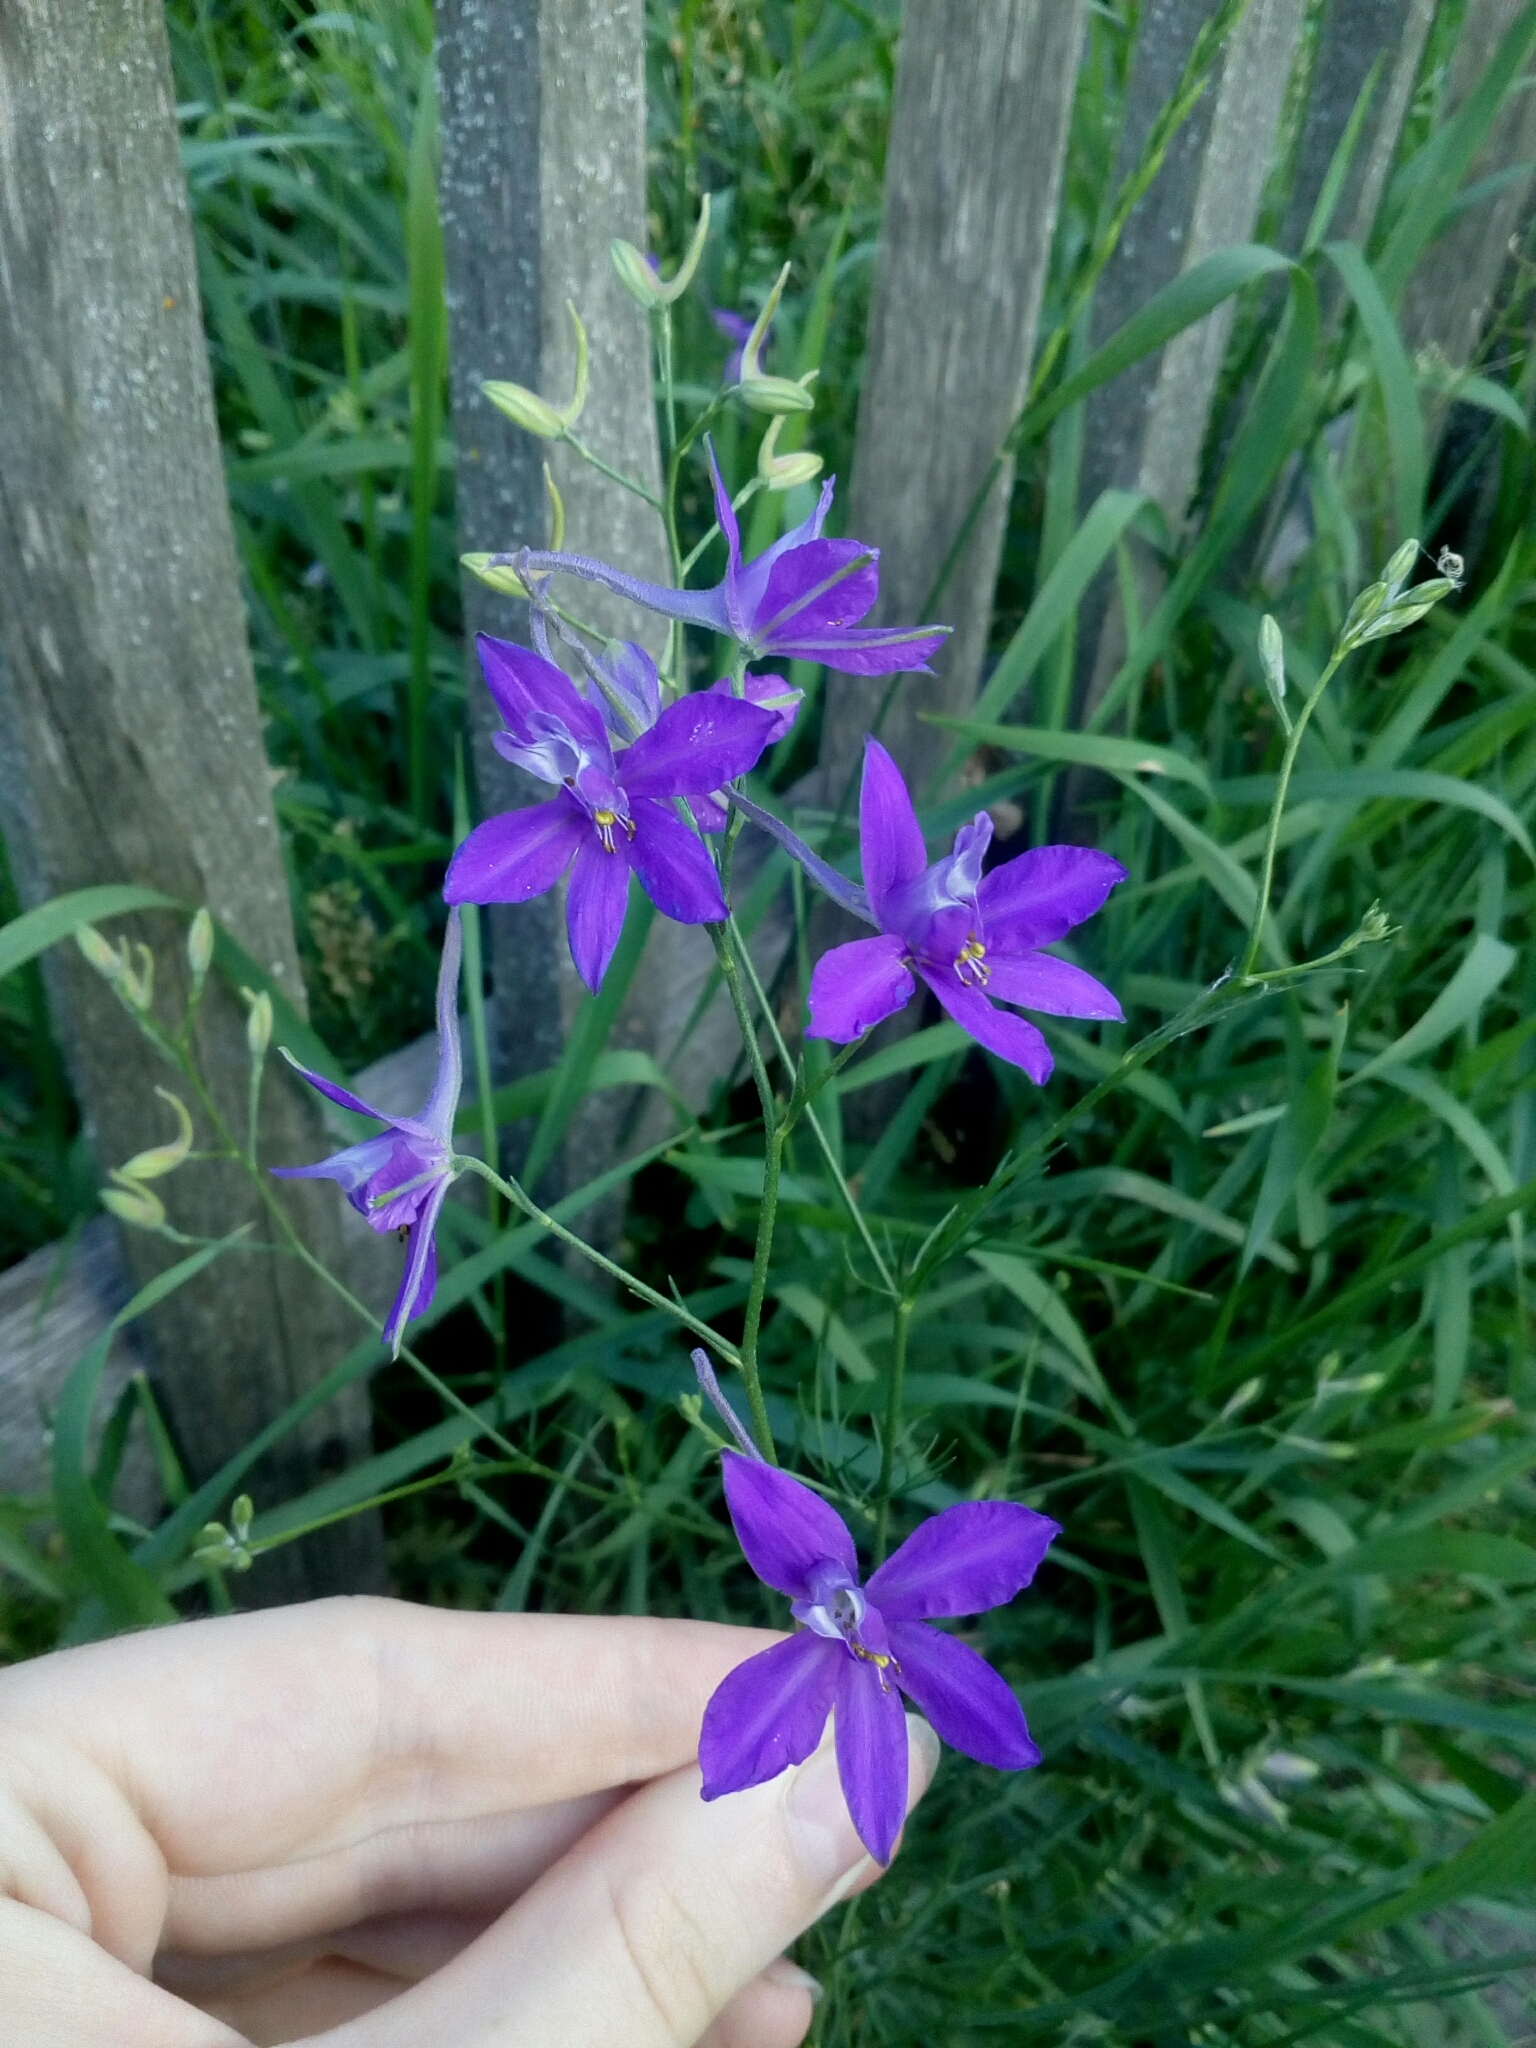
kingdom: Plantae
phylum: Tracheophyta
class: Magnoliopsida
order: Ranunculales
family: Ranunculaceae
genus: Delphinium
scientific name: Delphinium consolida
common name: Branching larkspur
